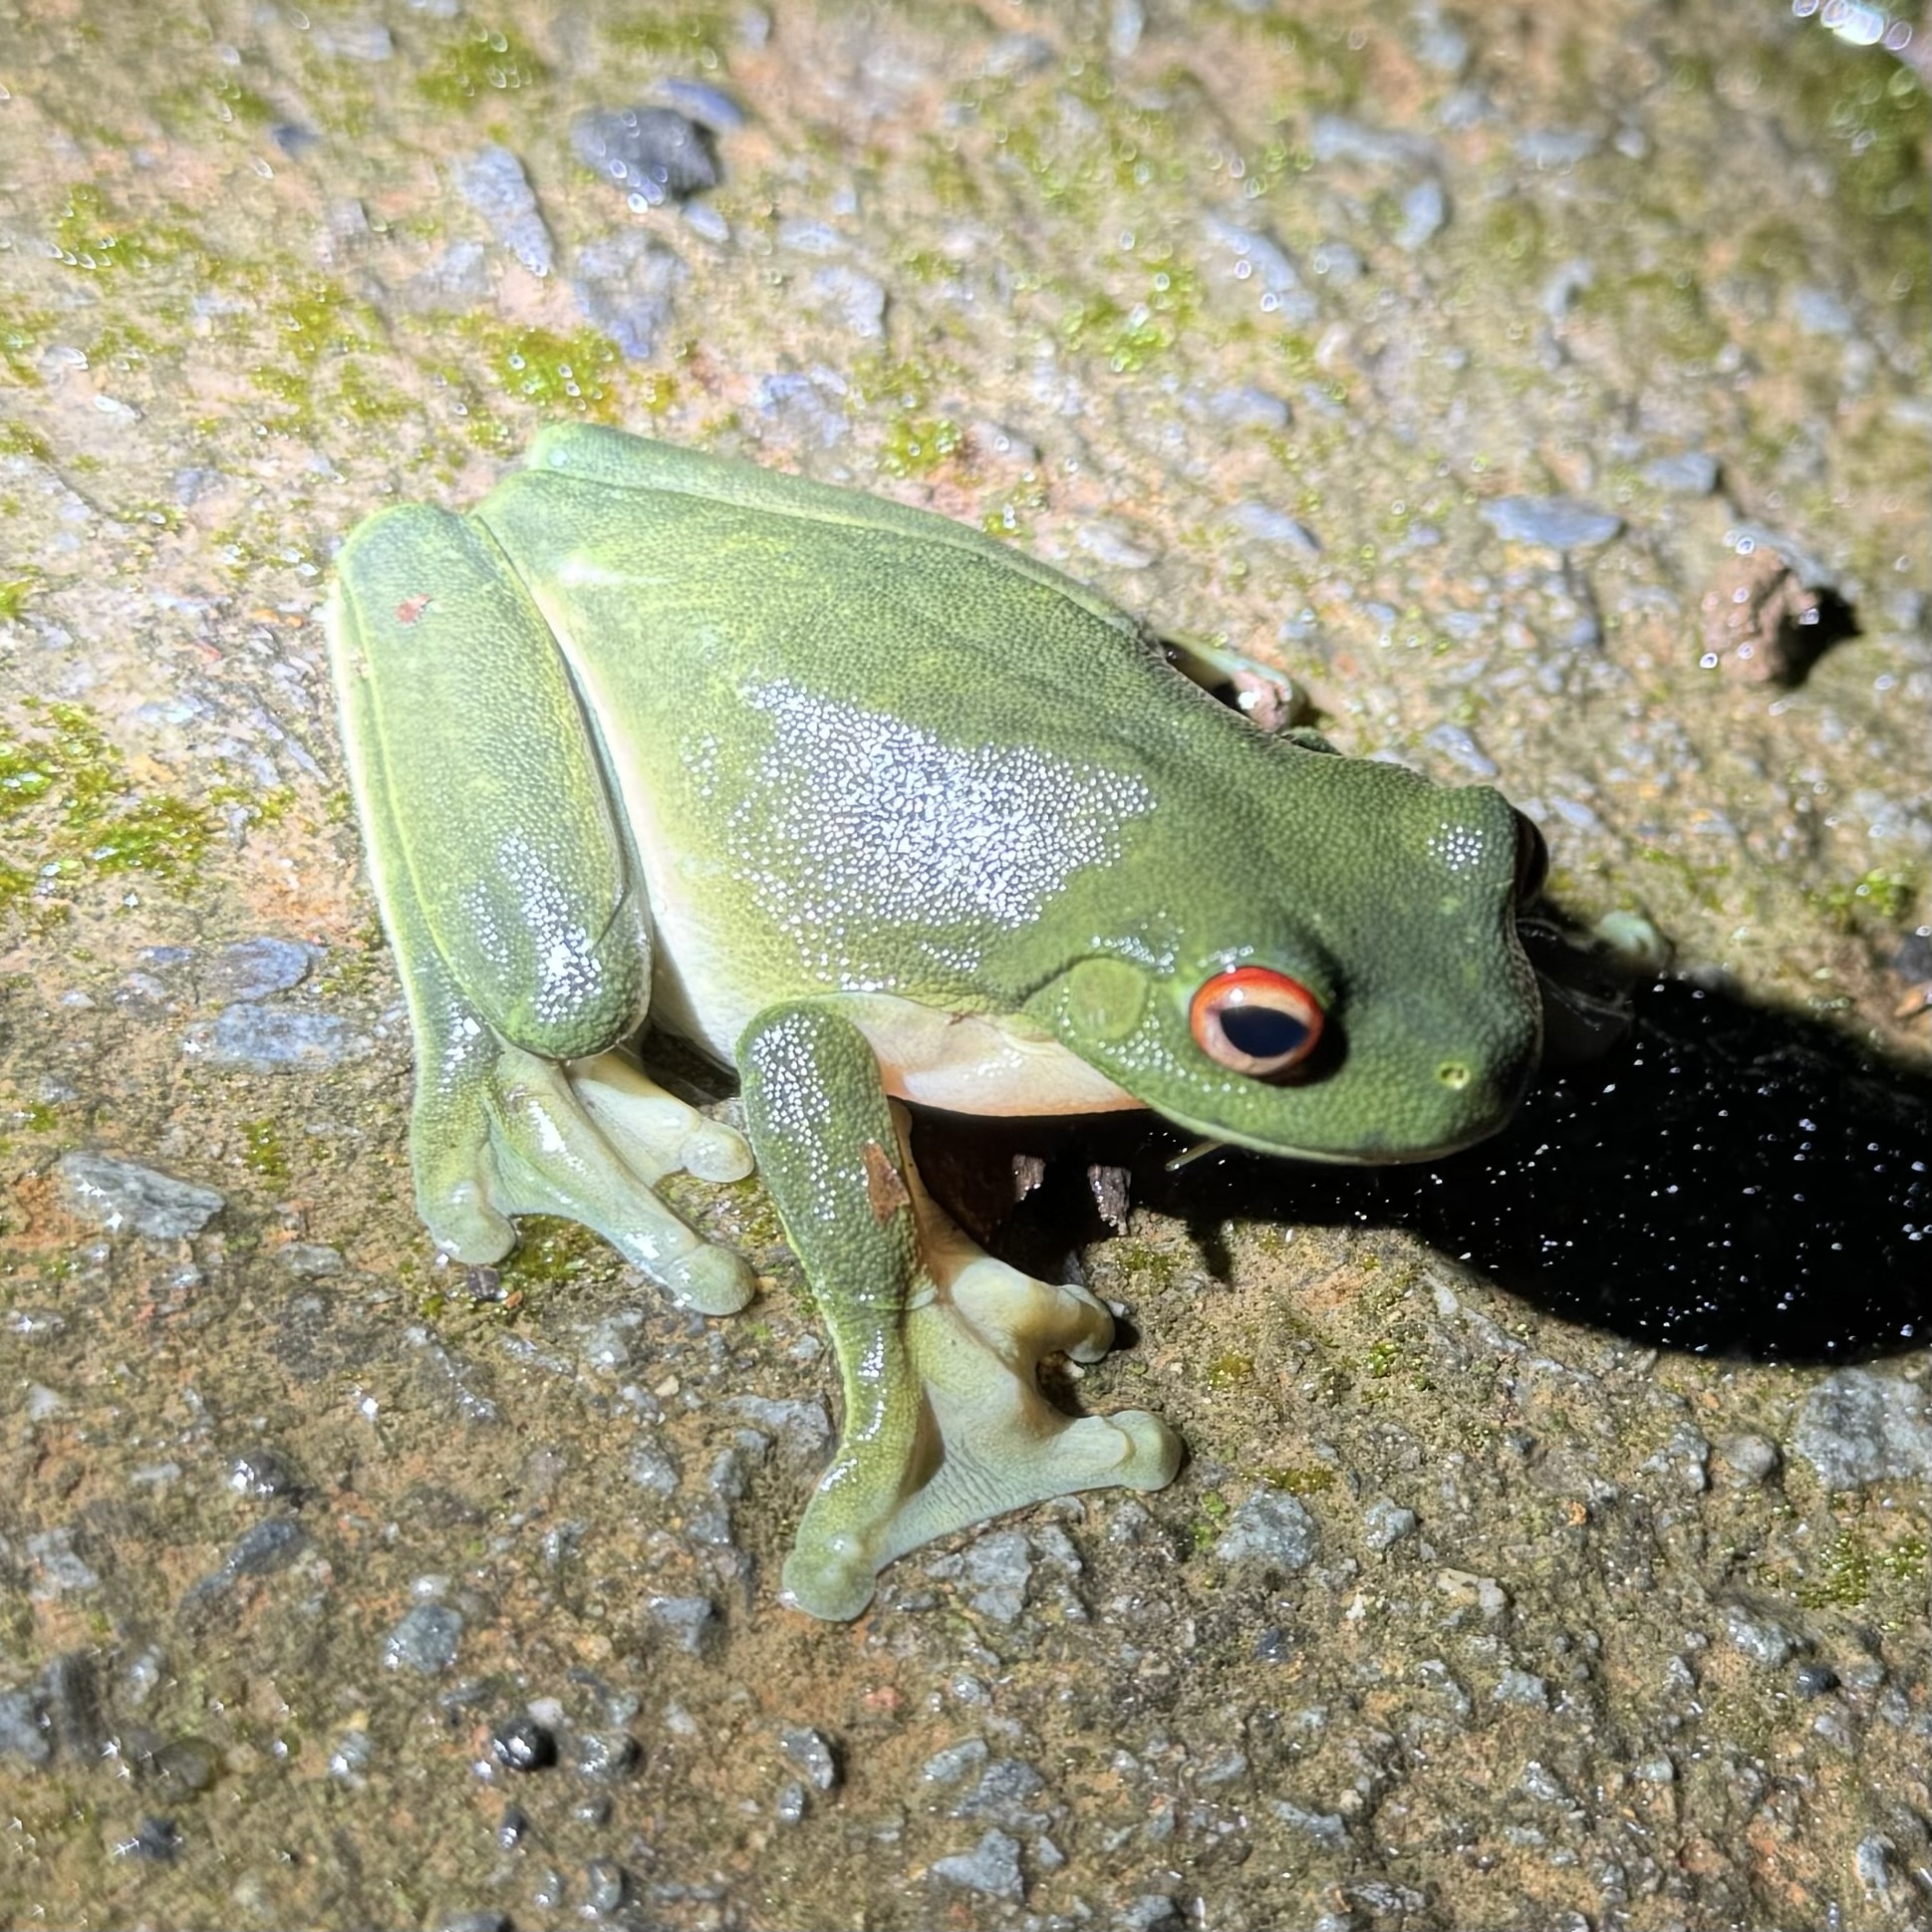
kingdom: Animalia
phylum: Chordata
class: Amphibia
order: Anura
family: Pelodryadidae
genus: Ranoidea
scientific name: Ranoidea chloris
